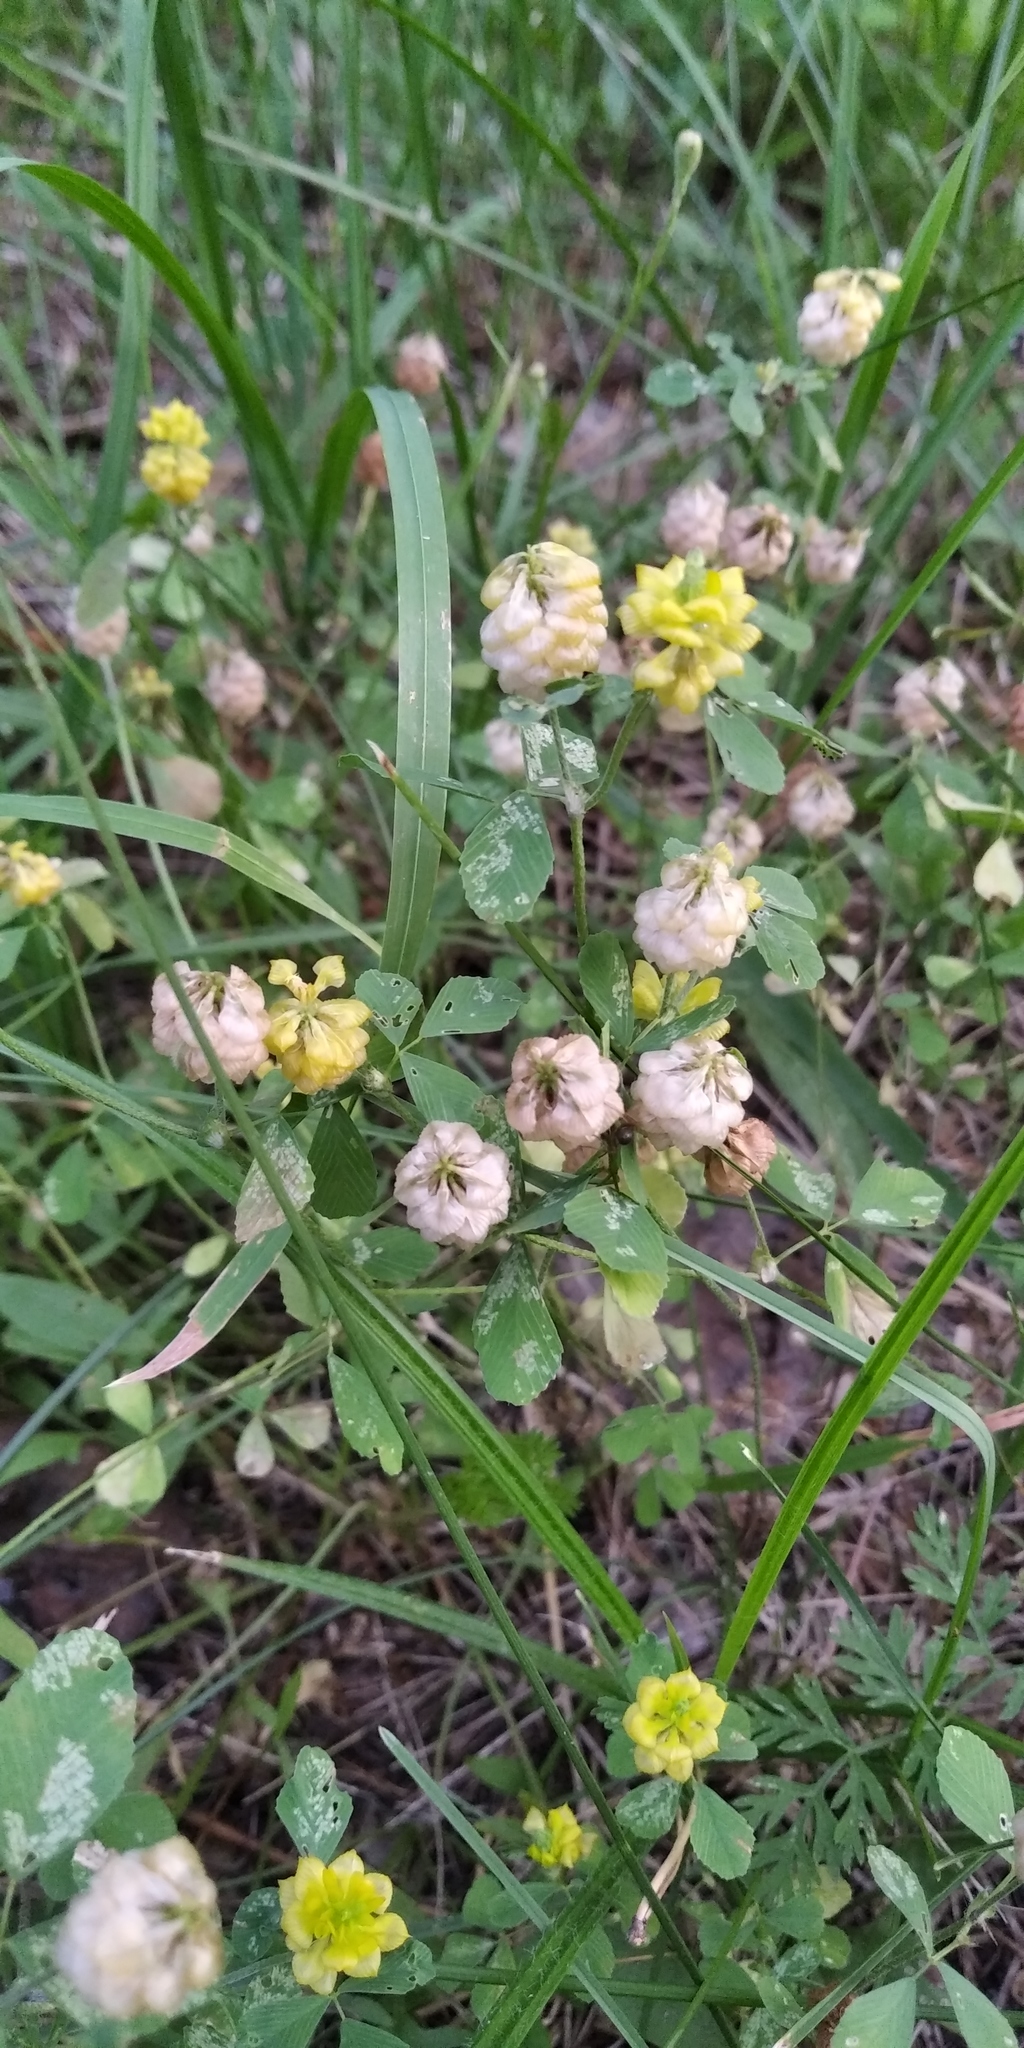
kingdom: Plantae
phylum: Tracheophyta
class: Magnoliopsida
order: Fabales
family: Fabaceae
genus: Trifolium
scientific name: Trifolium campestre
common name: Field clover
